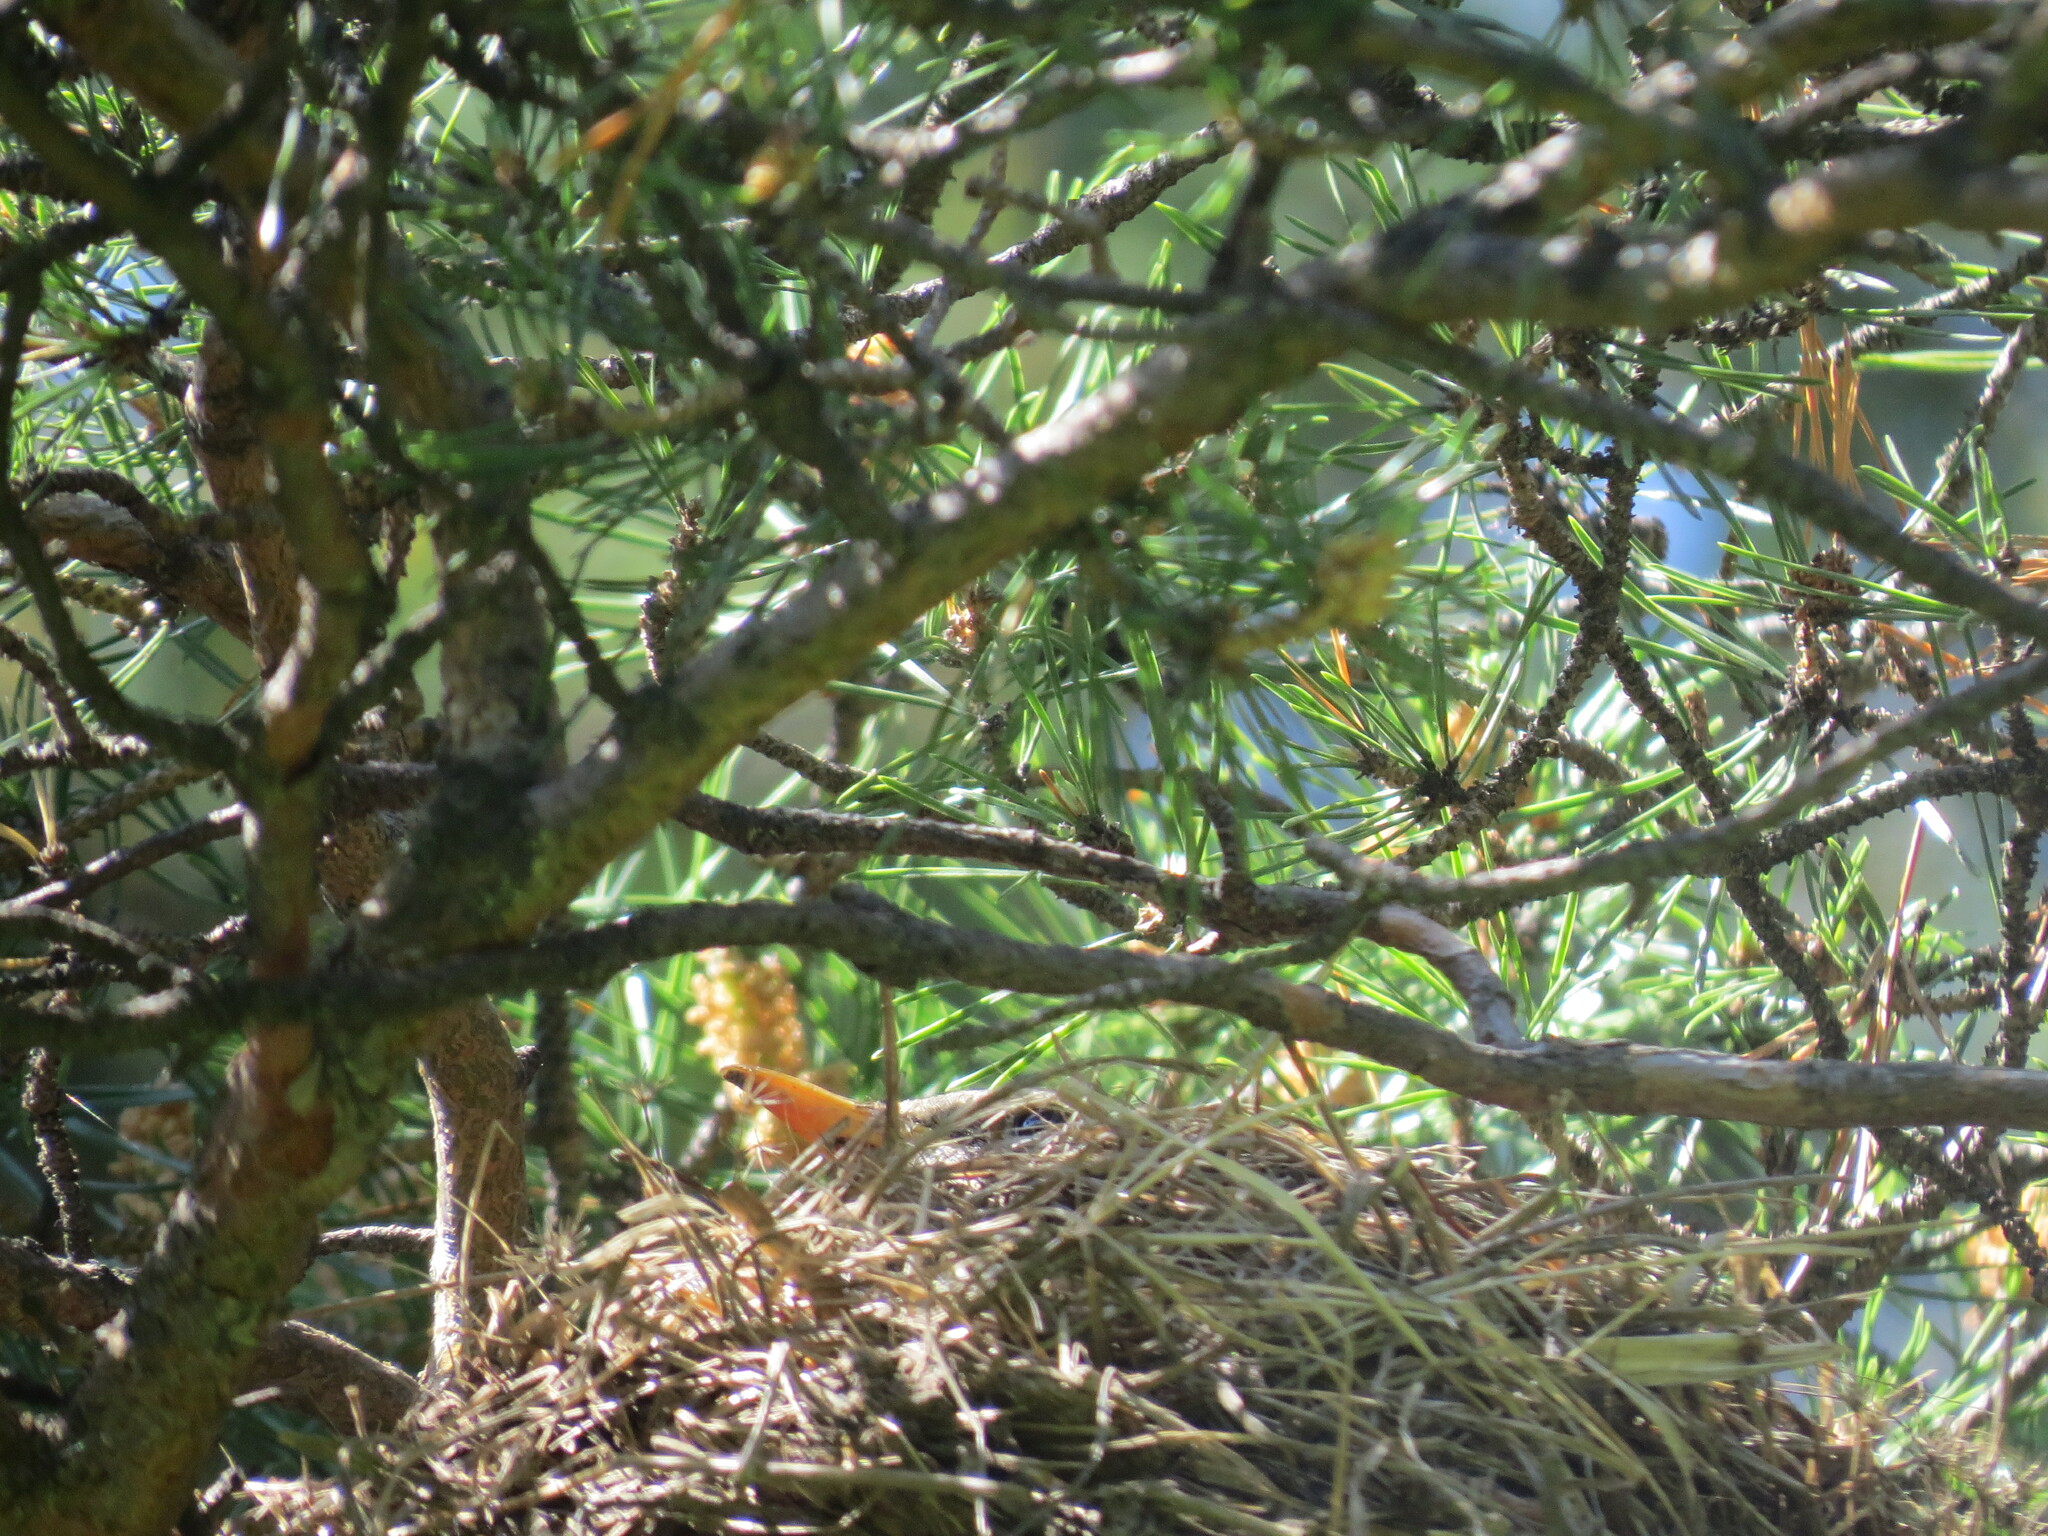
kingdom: Animalia
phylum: Chordata
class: Aves
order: Passeriformes
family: Turdidae
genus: Turdus
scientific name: Turdus pilaris
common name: Fieldfare
